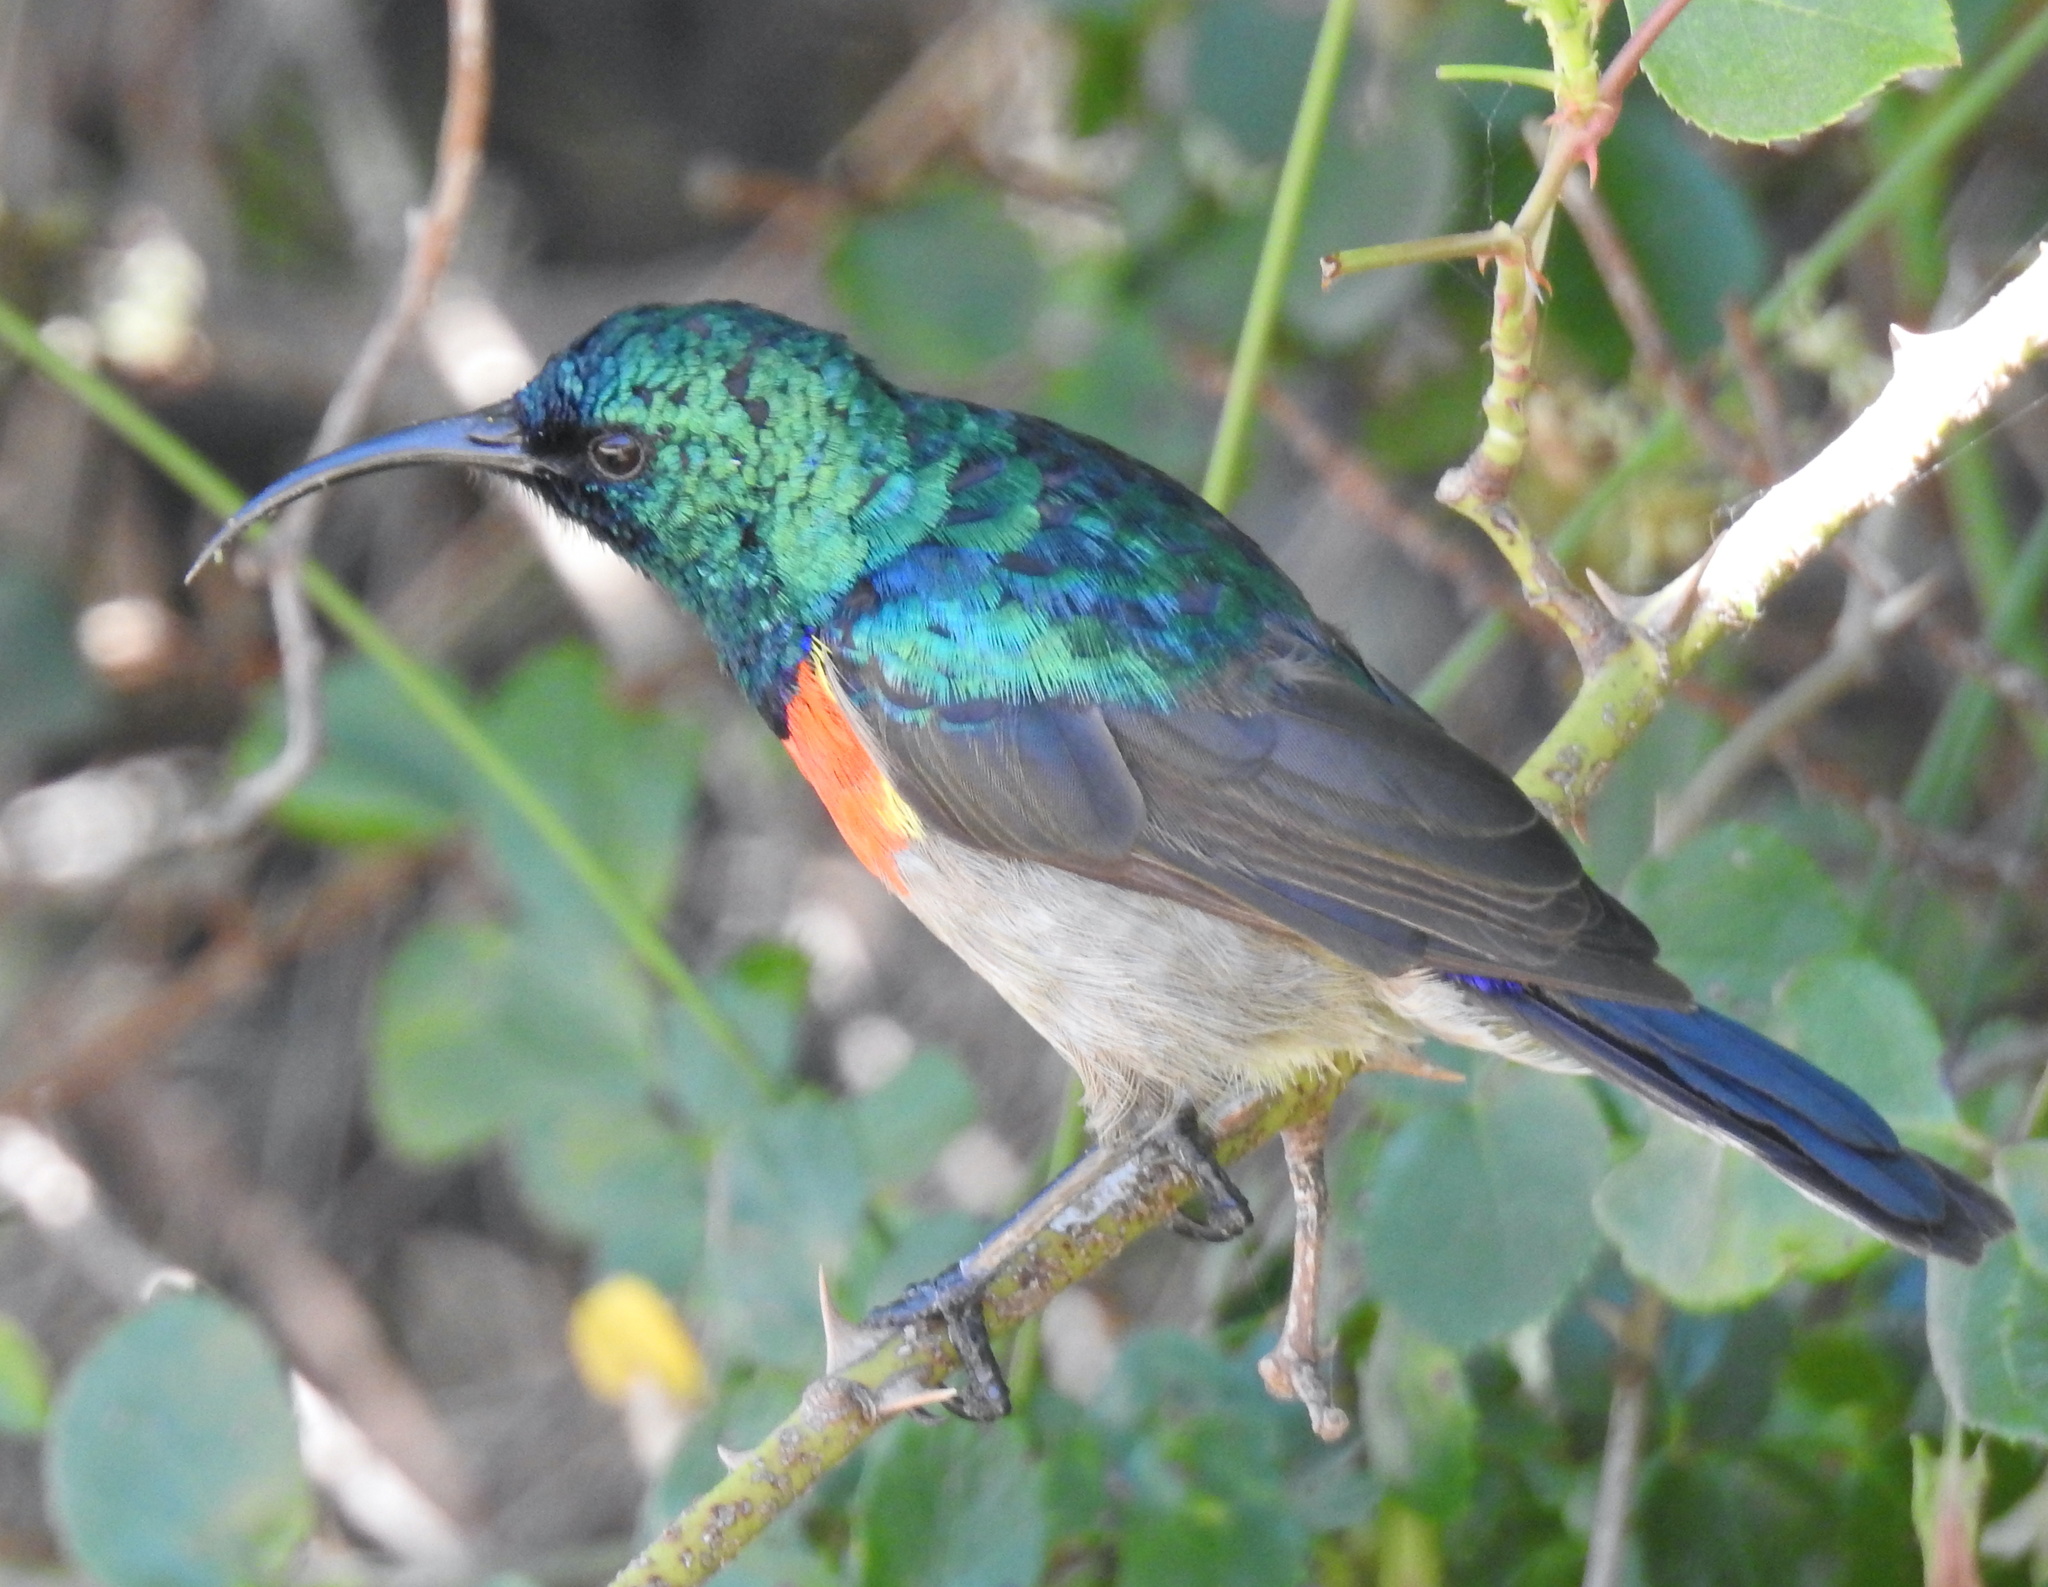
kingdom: Animalia
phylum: Chordata
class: Aves
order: Passeriformes
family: Nectariniidae
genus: Cinnyris
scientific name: Cinnyris chalybeus
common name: Southern double-collared sunbird
